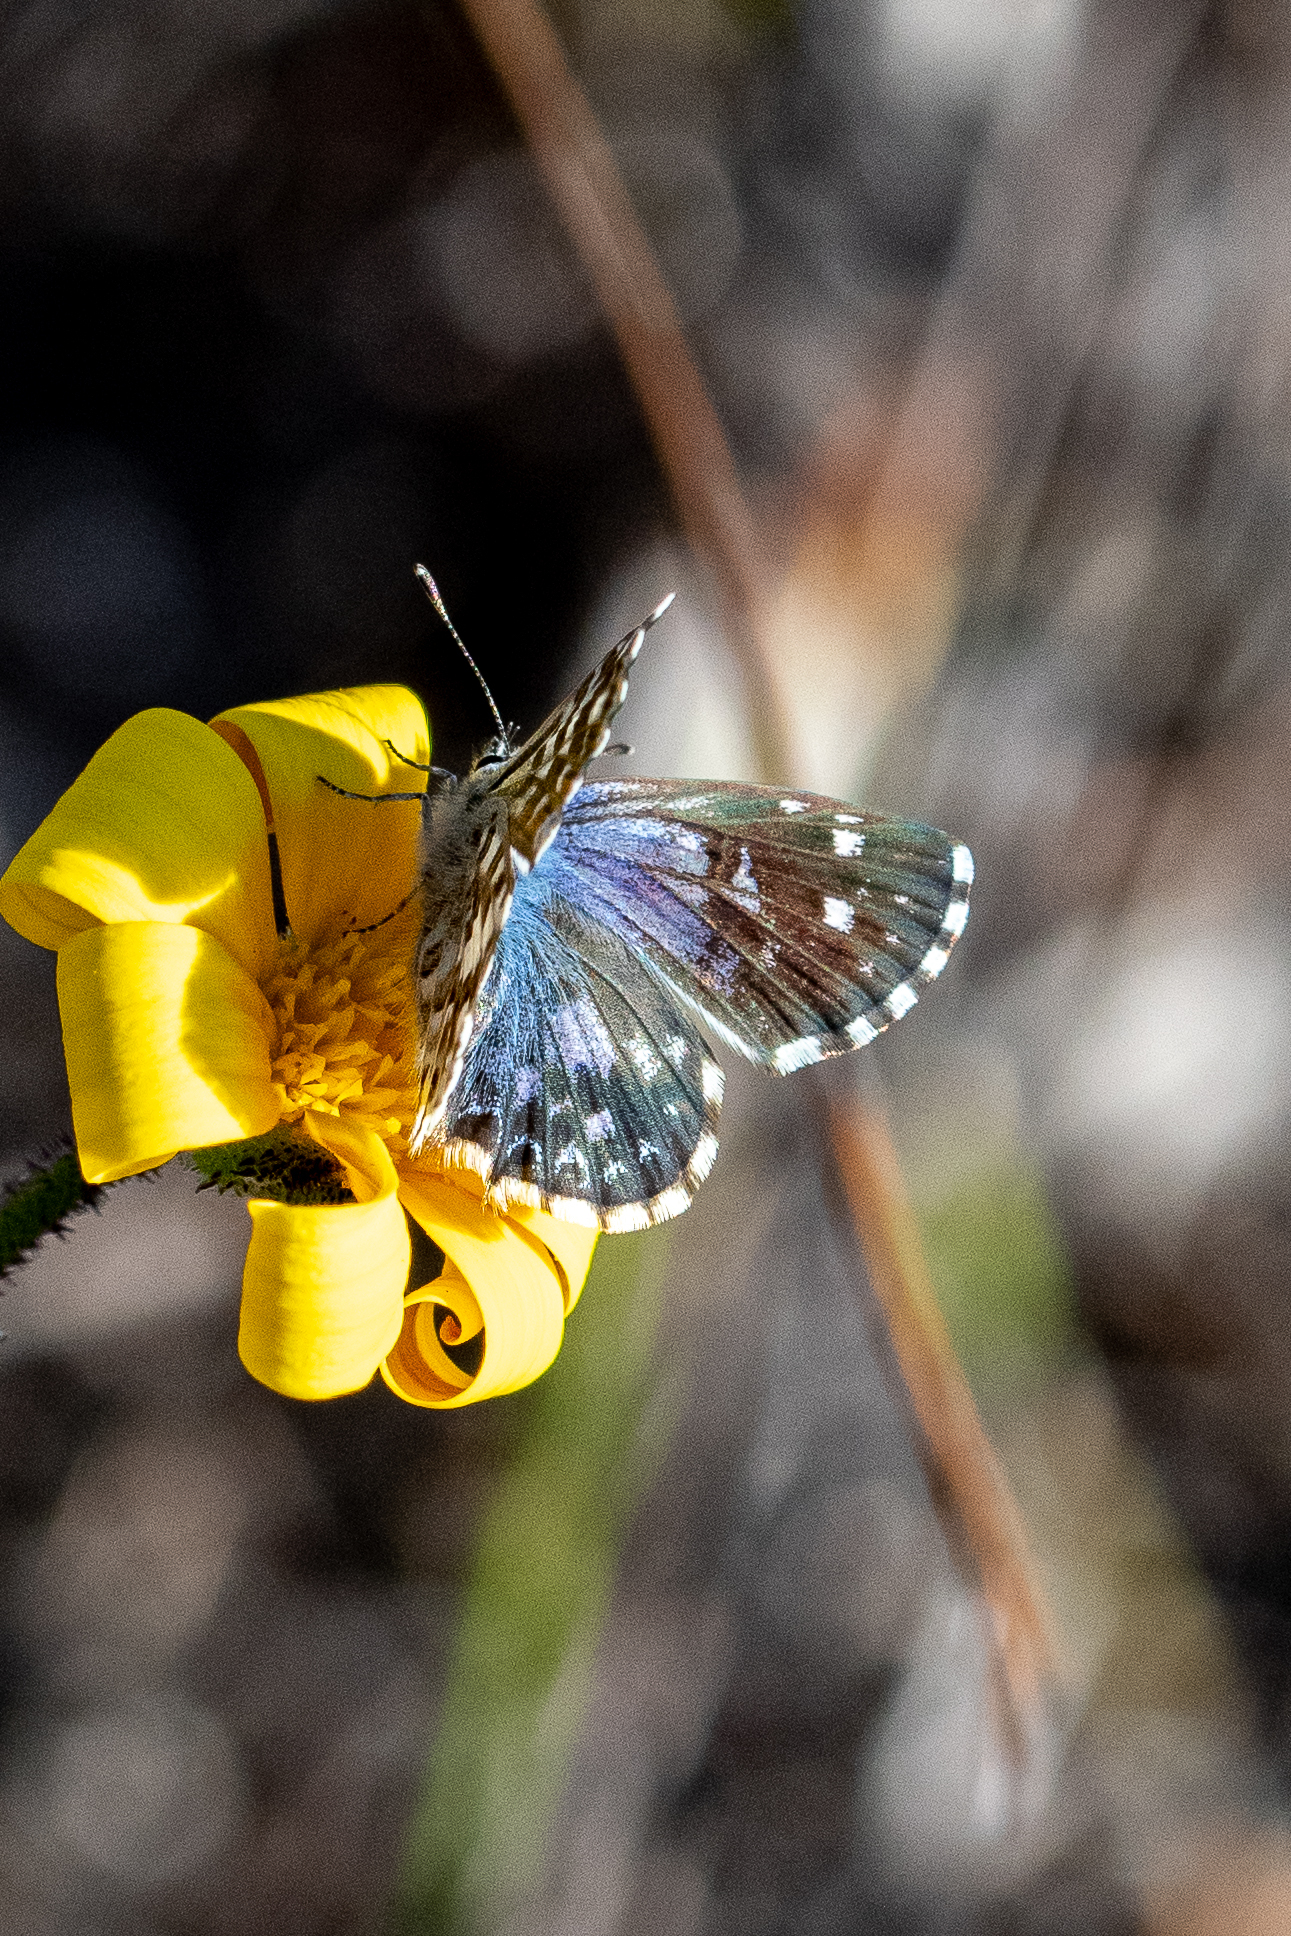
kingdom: Animalia
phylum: Arthropoda
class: Insecta
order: Lepidoptera
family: Lycaenidae
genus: Tarucus
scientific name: Tarucus thespis
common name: Vivid dotted blue
